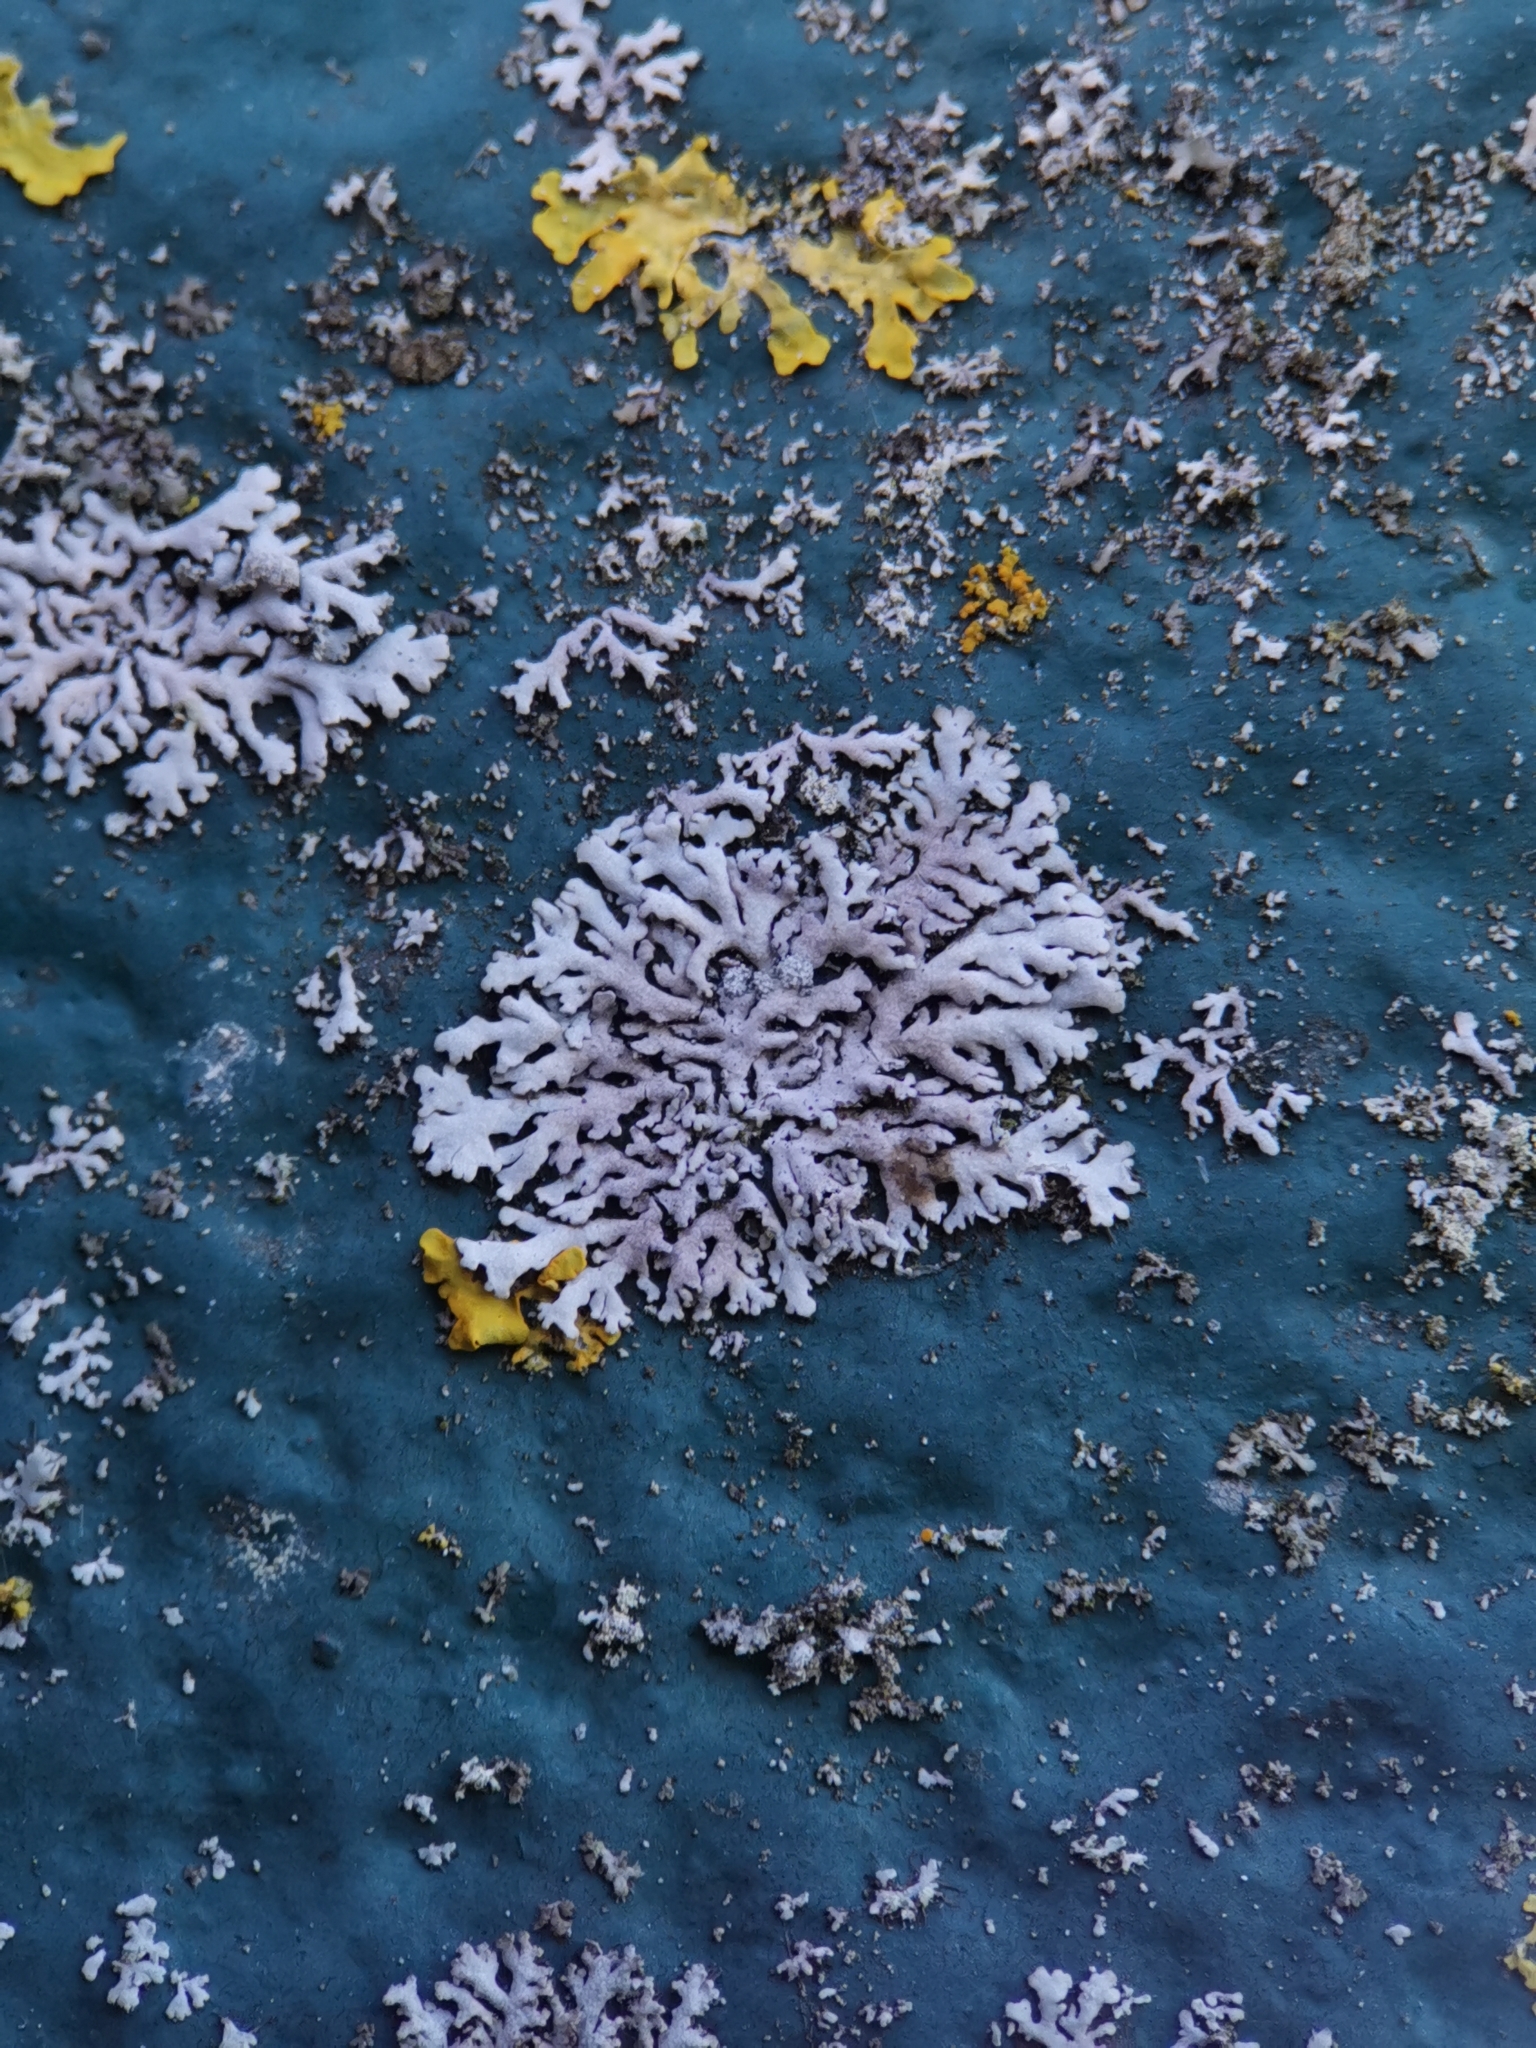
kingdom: Fungi
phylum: Ascomycota
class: Lecanoromycetes
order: Caliciales
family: Physciaceae
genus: Physcia
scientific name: Physcia caesia
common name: Blue-gray rosette lichen
